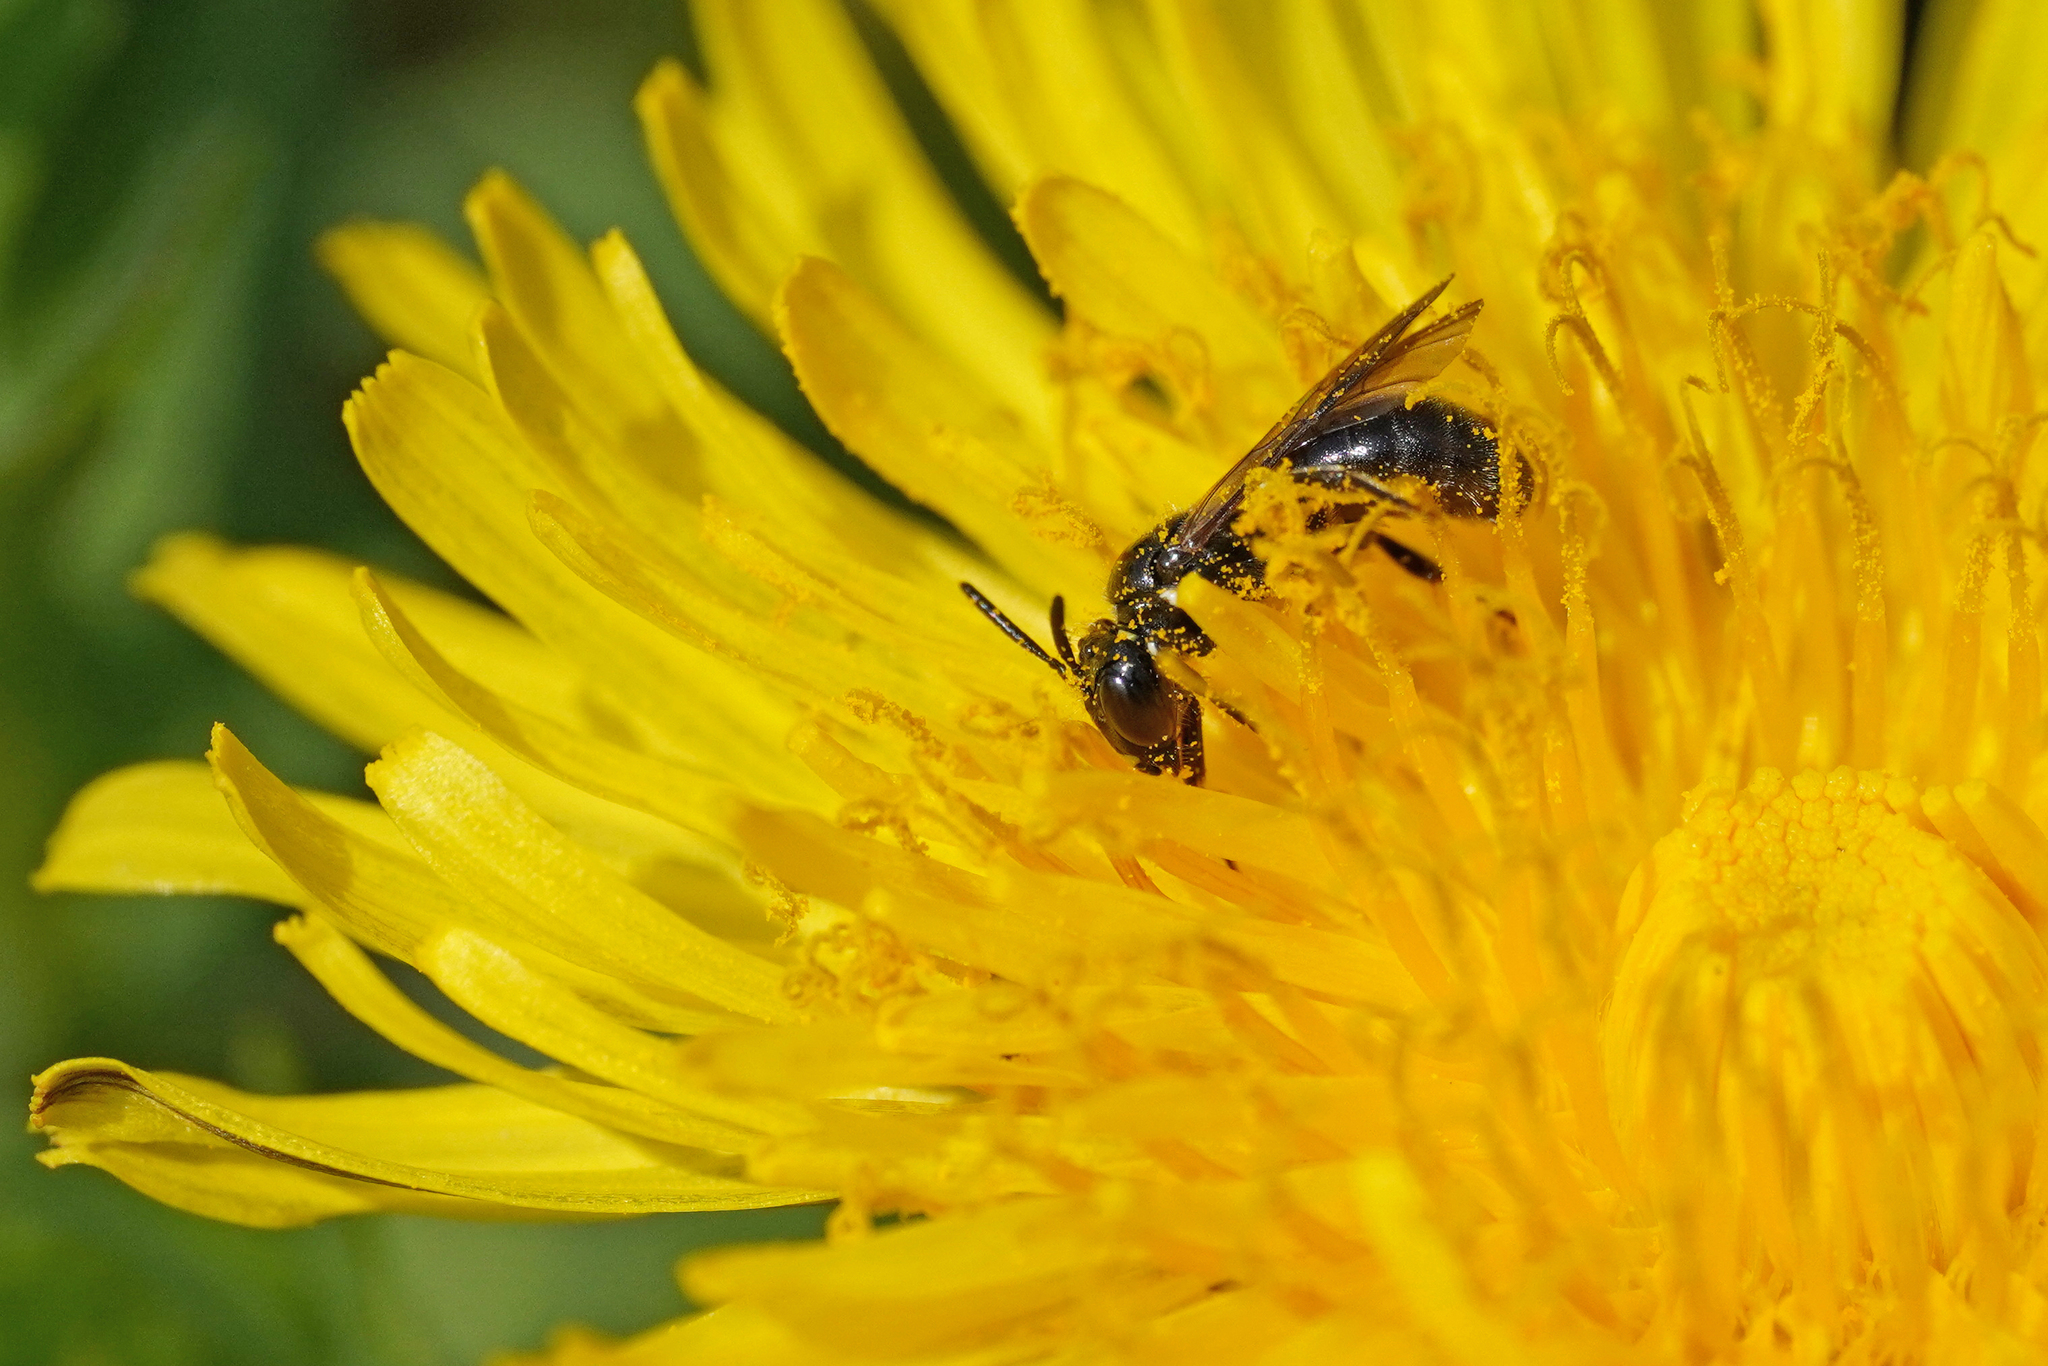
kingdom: Animalia
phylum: Arthropoda
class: Insecta
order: Hymenoptera
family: Apidae
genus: Ceratina
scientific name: Ceratina cucurbitina
